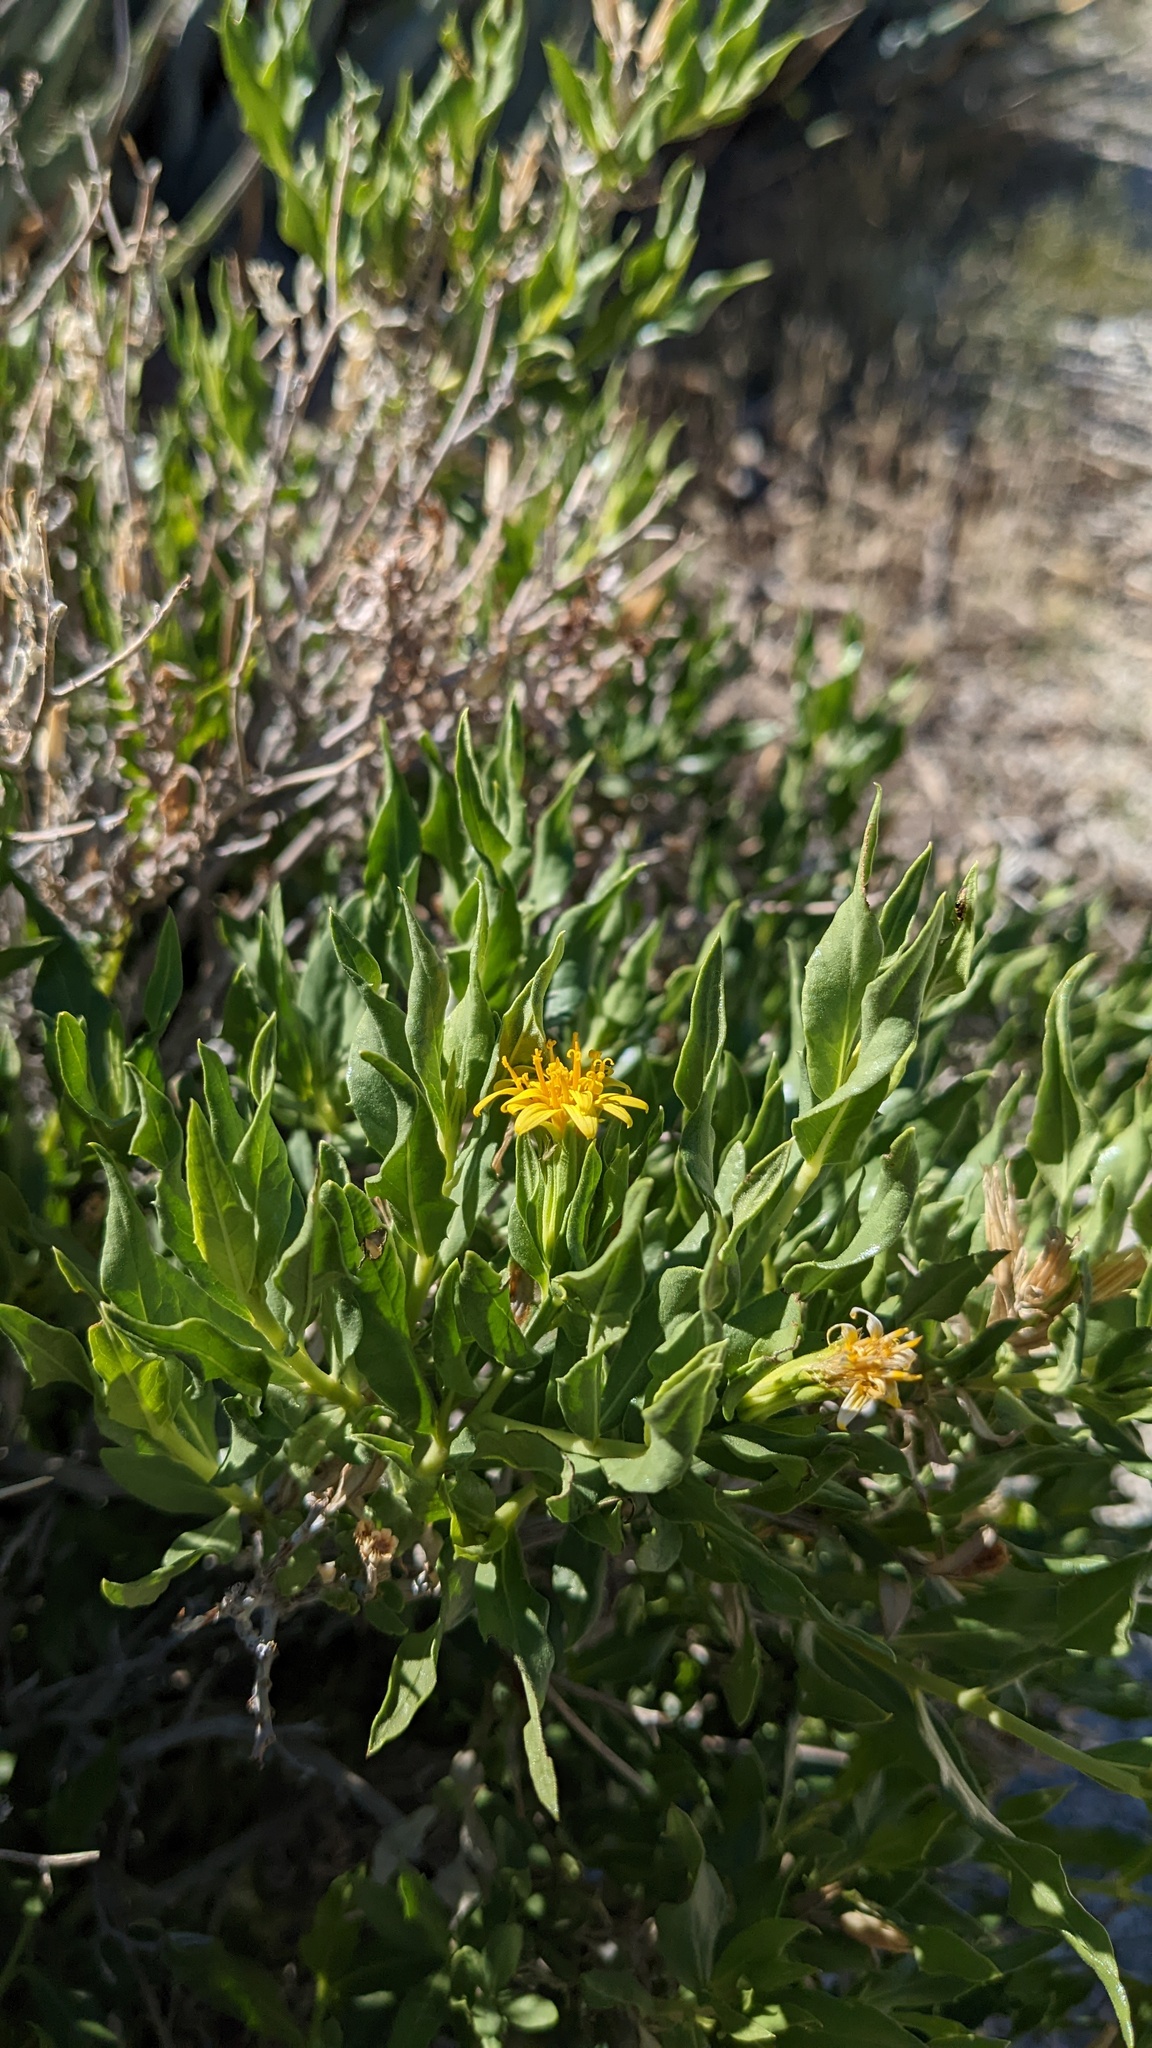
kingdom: Plantae
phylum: Tracheophyta
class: Magnoliopsida
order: Asterales
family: Asteraceae
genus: Trixis
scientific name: Trixis californica
